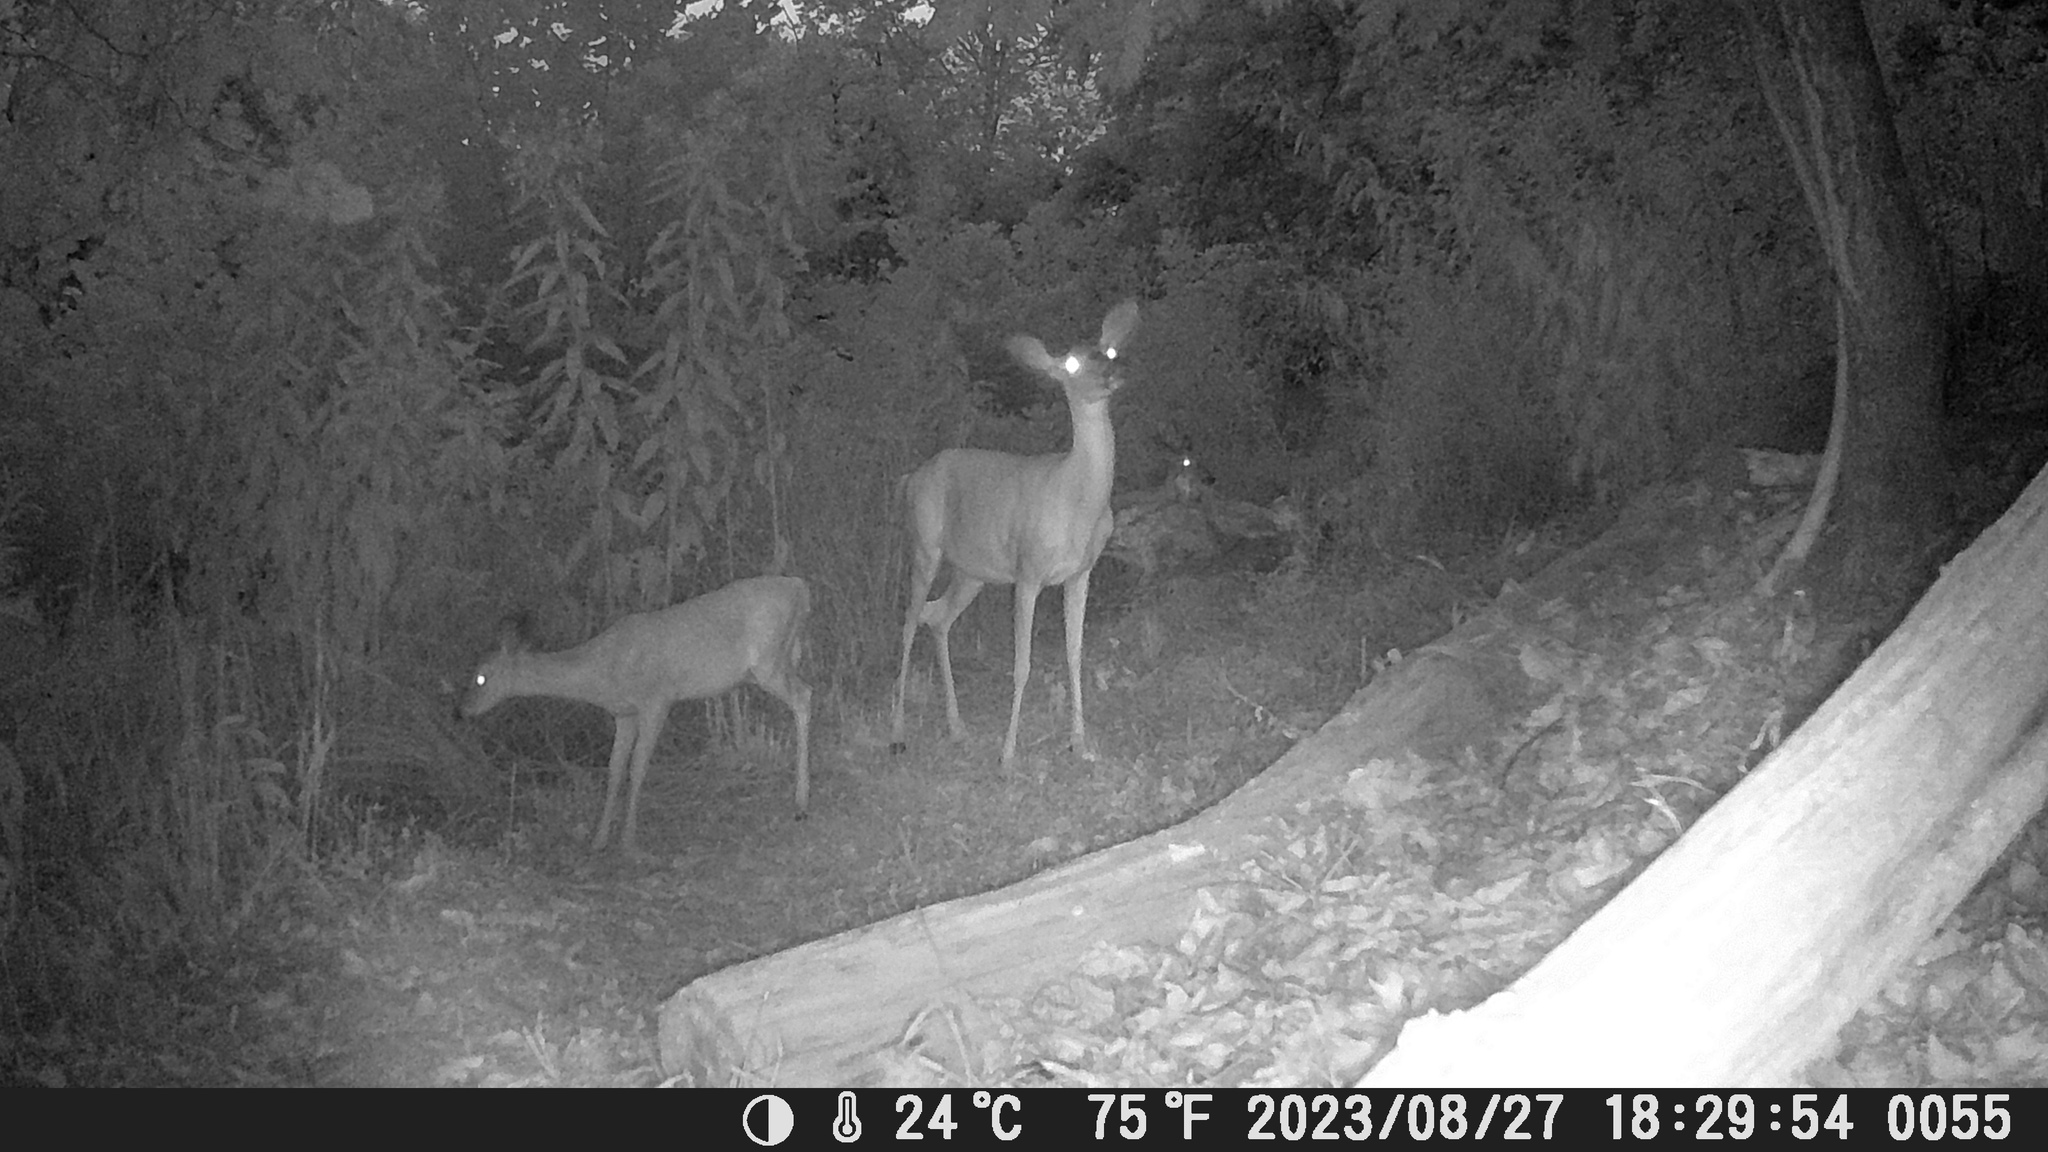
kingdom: Animalia
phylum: Chordata
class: Mammalia
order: Artiodactyla
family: Cervidae
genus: Odocoileus
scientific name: Odocoileus virginianus
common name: White-tailed deer
